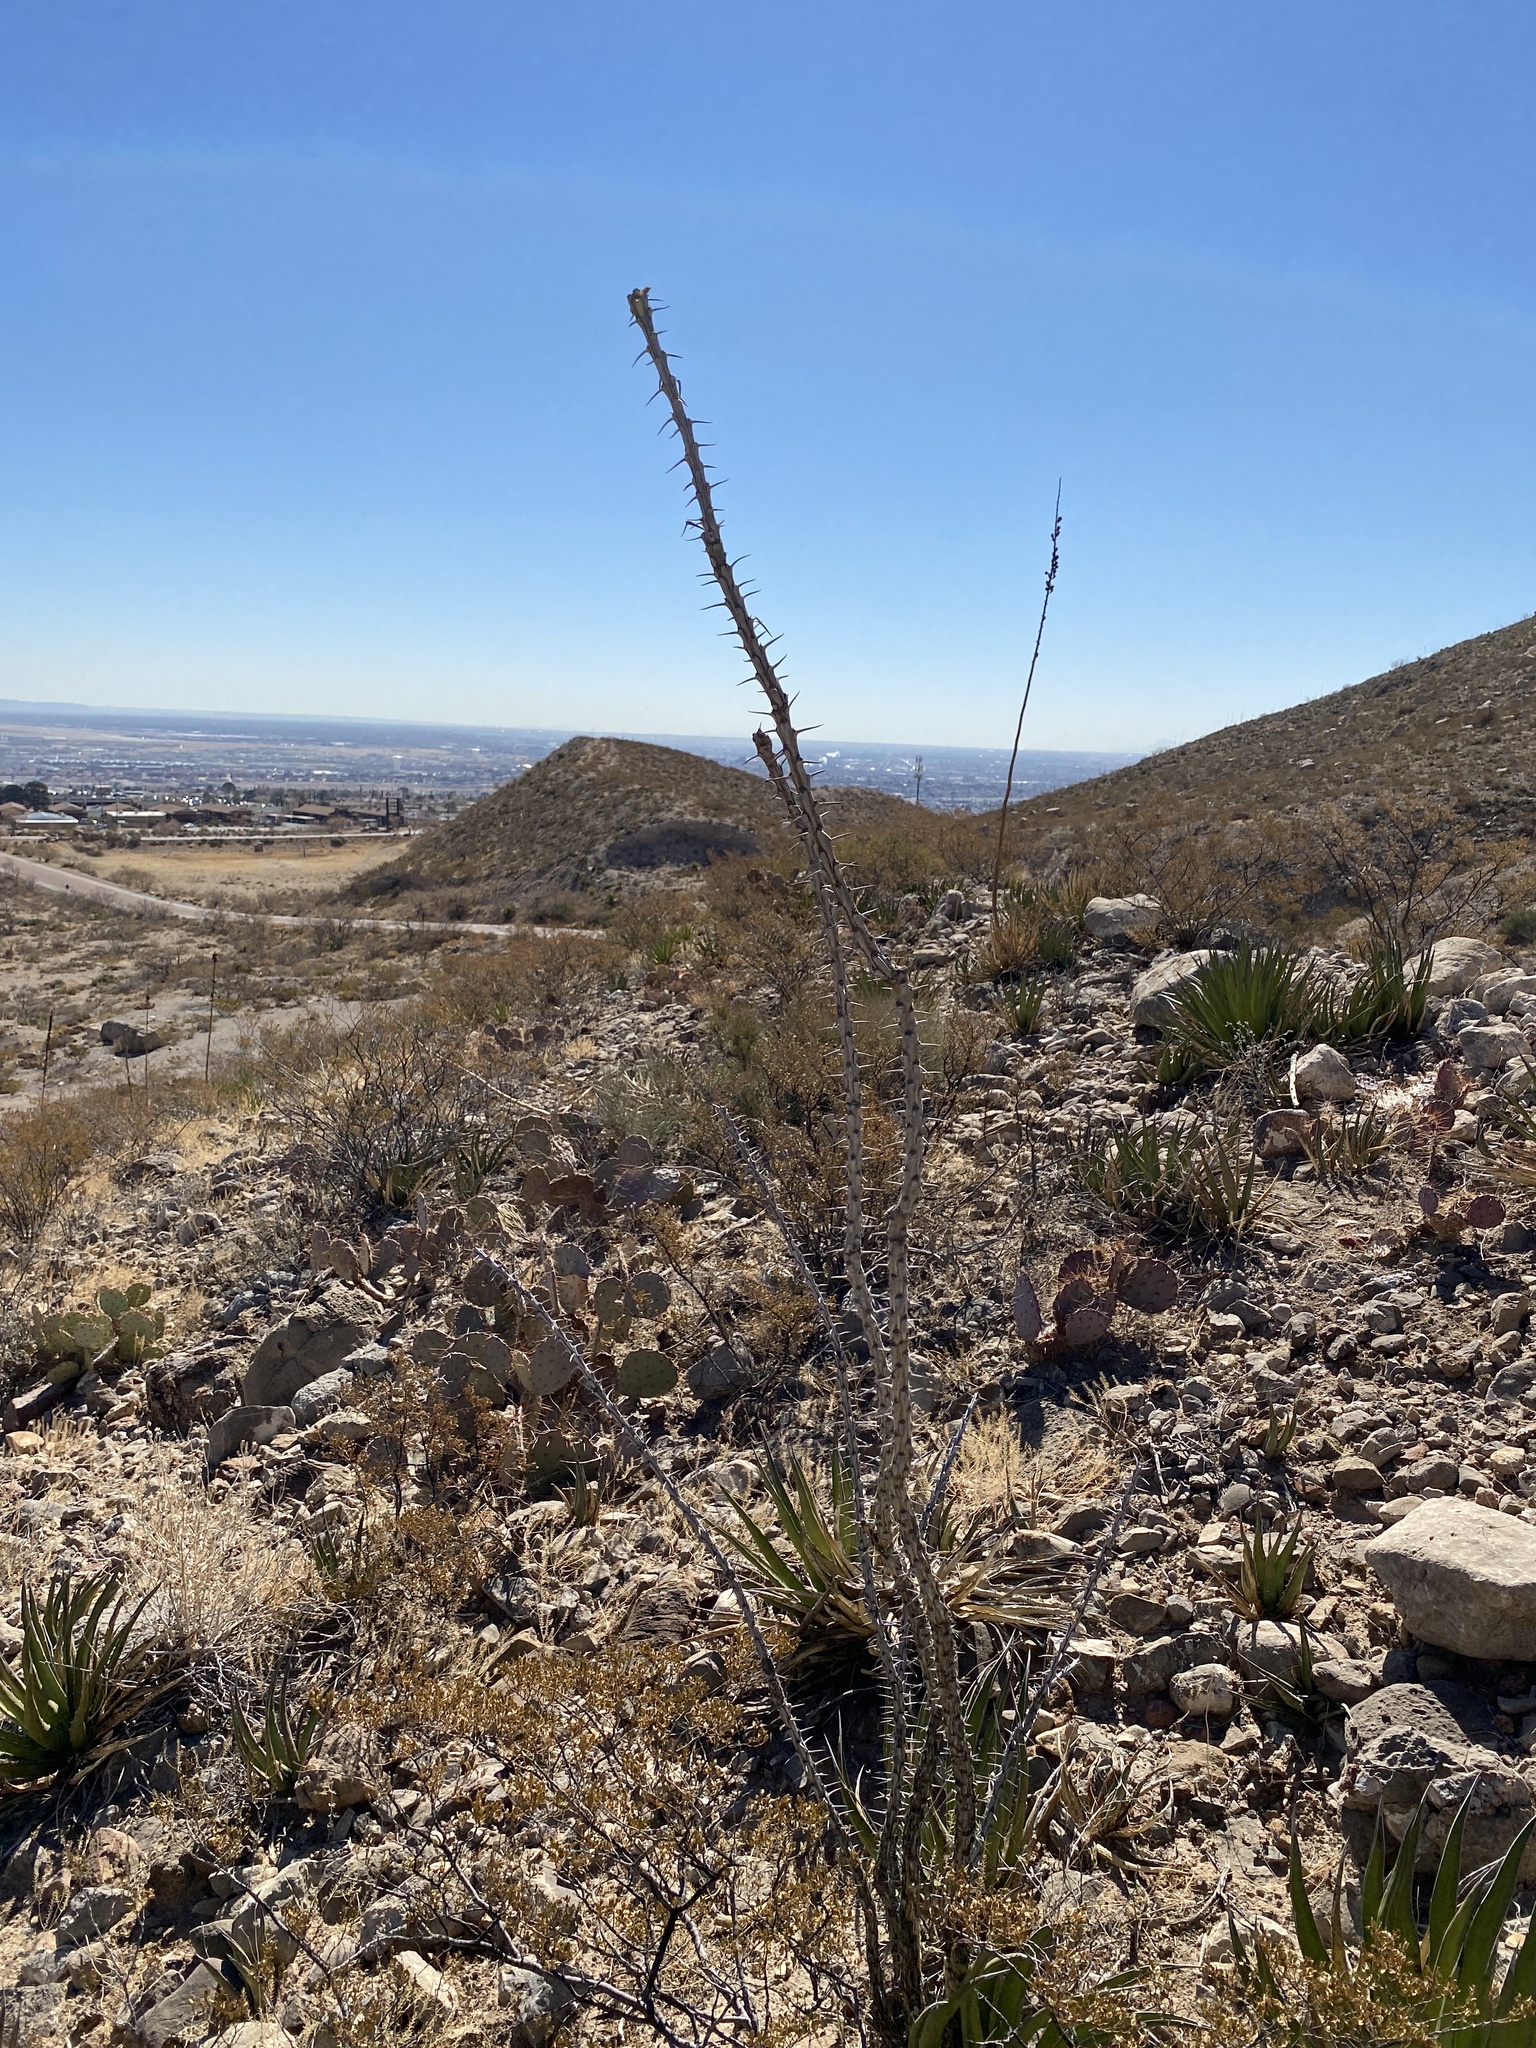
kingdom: Plantae
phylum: Tracheophyta
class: Magnoliopsida
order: Ericales
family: Fouquieriaceae
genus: Fouquieria
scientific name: Fouquieria splendens
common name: Vine-cactus
